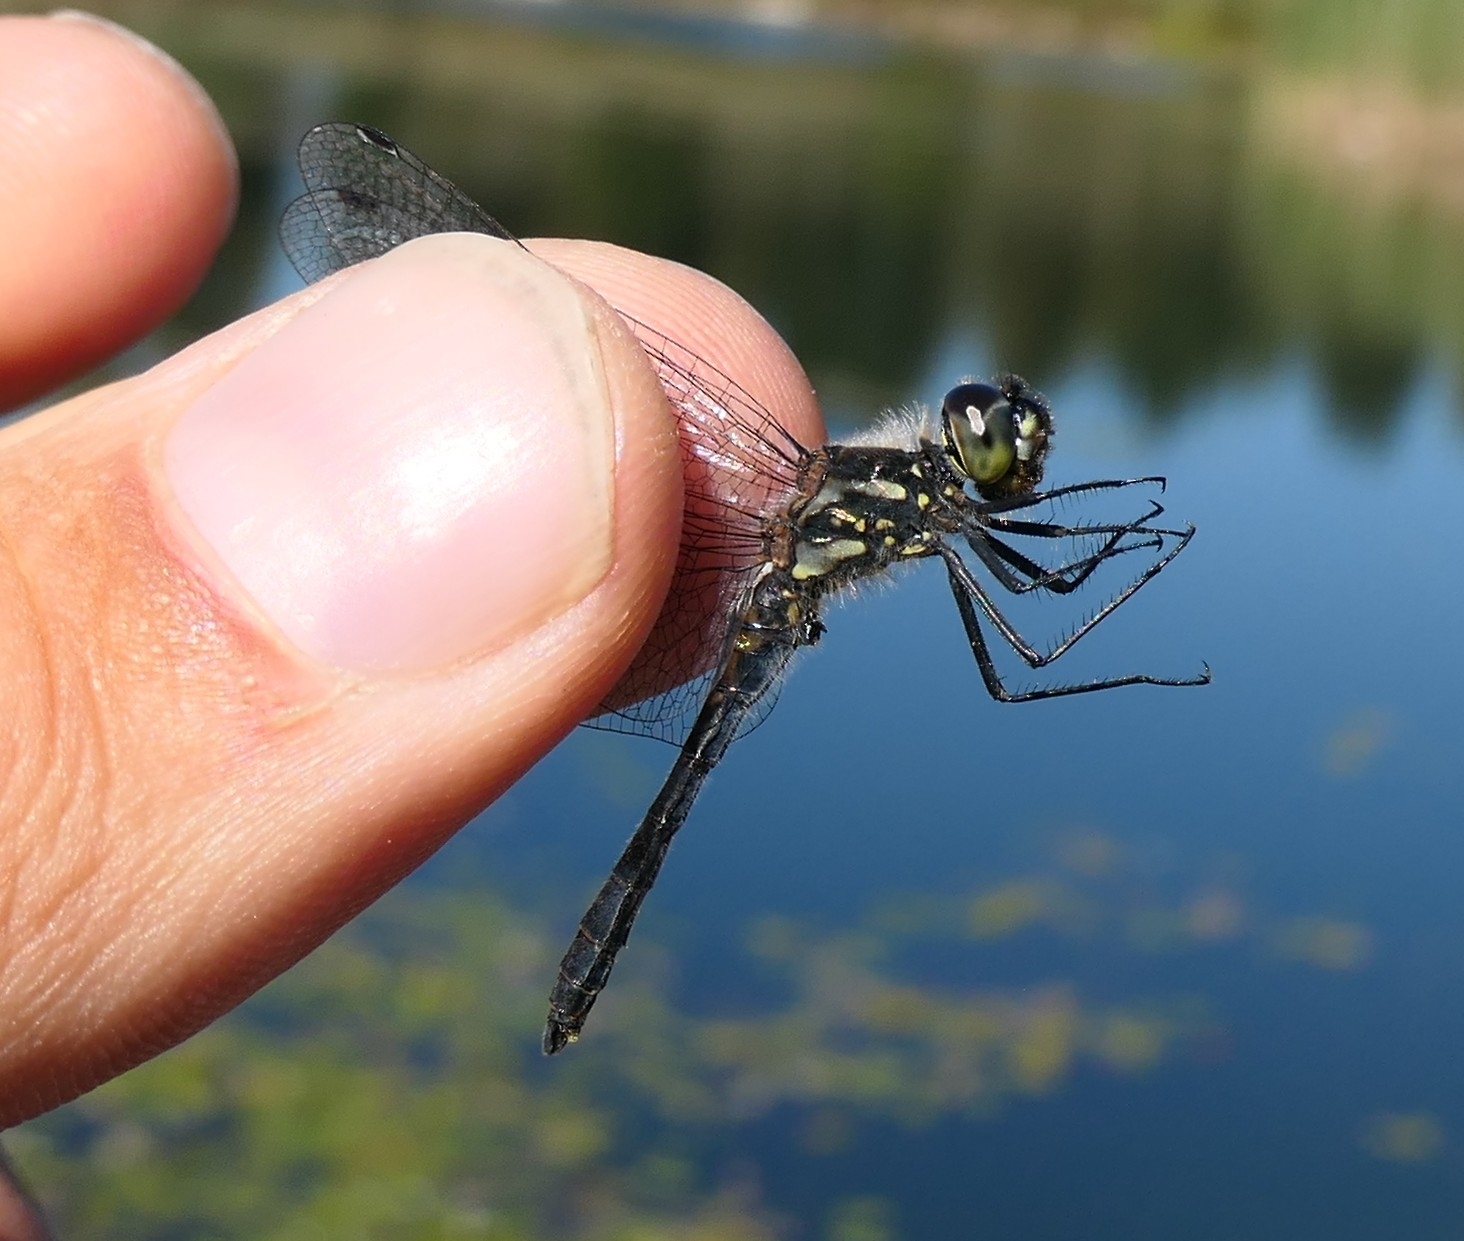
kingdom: Animalia
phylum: Arthropoda
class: Insecta
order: Odonata
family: Libellulidae
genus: Sympetrum
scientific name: Sympetrum danae
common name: Black darter
